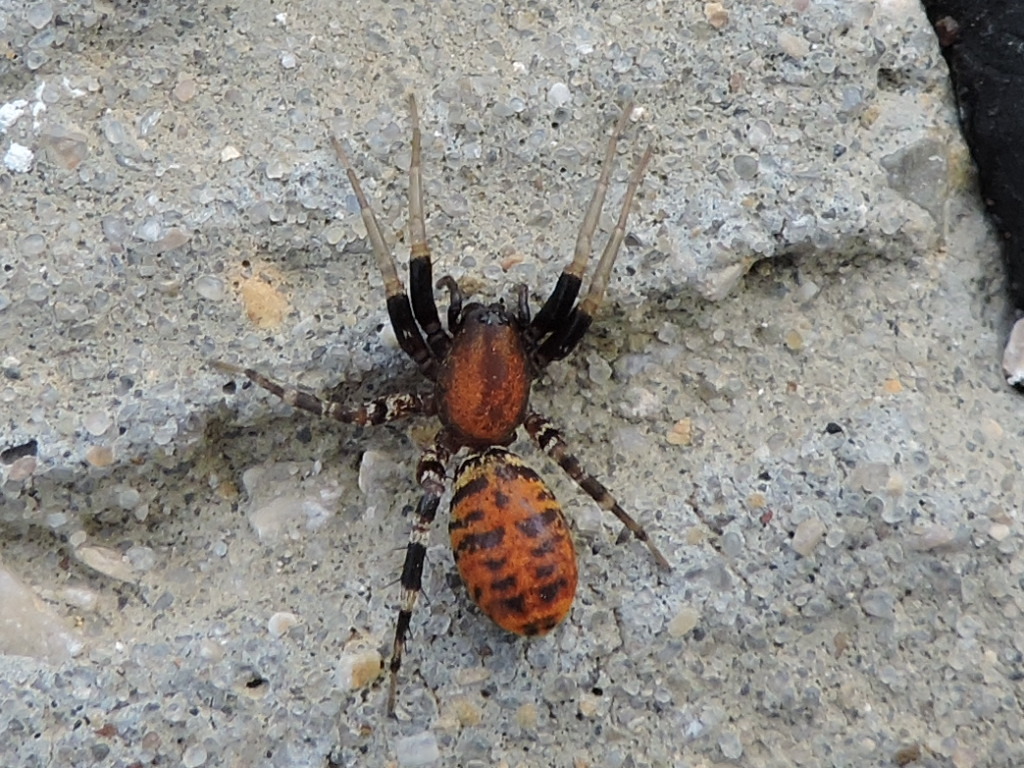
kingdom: Animalia
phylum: Arthropoda
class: Arachnida
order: Araneae
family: Corinnidae
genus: Castianeira
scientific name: Castianeira amoena
